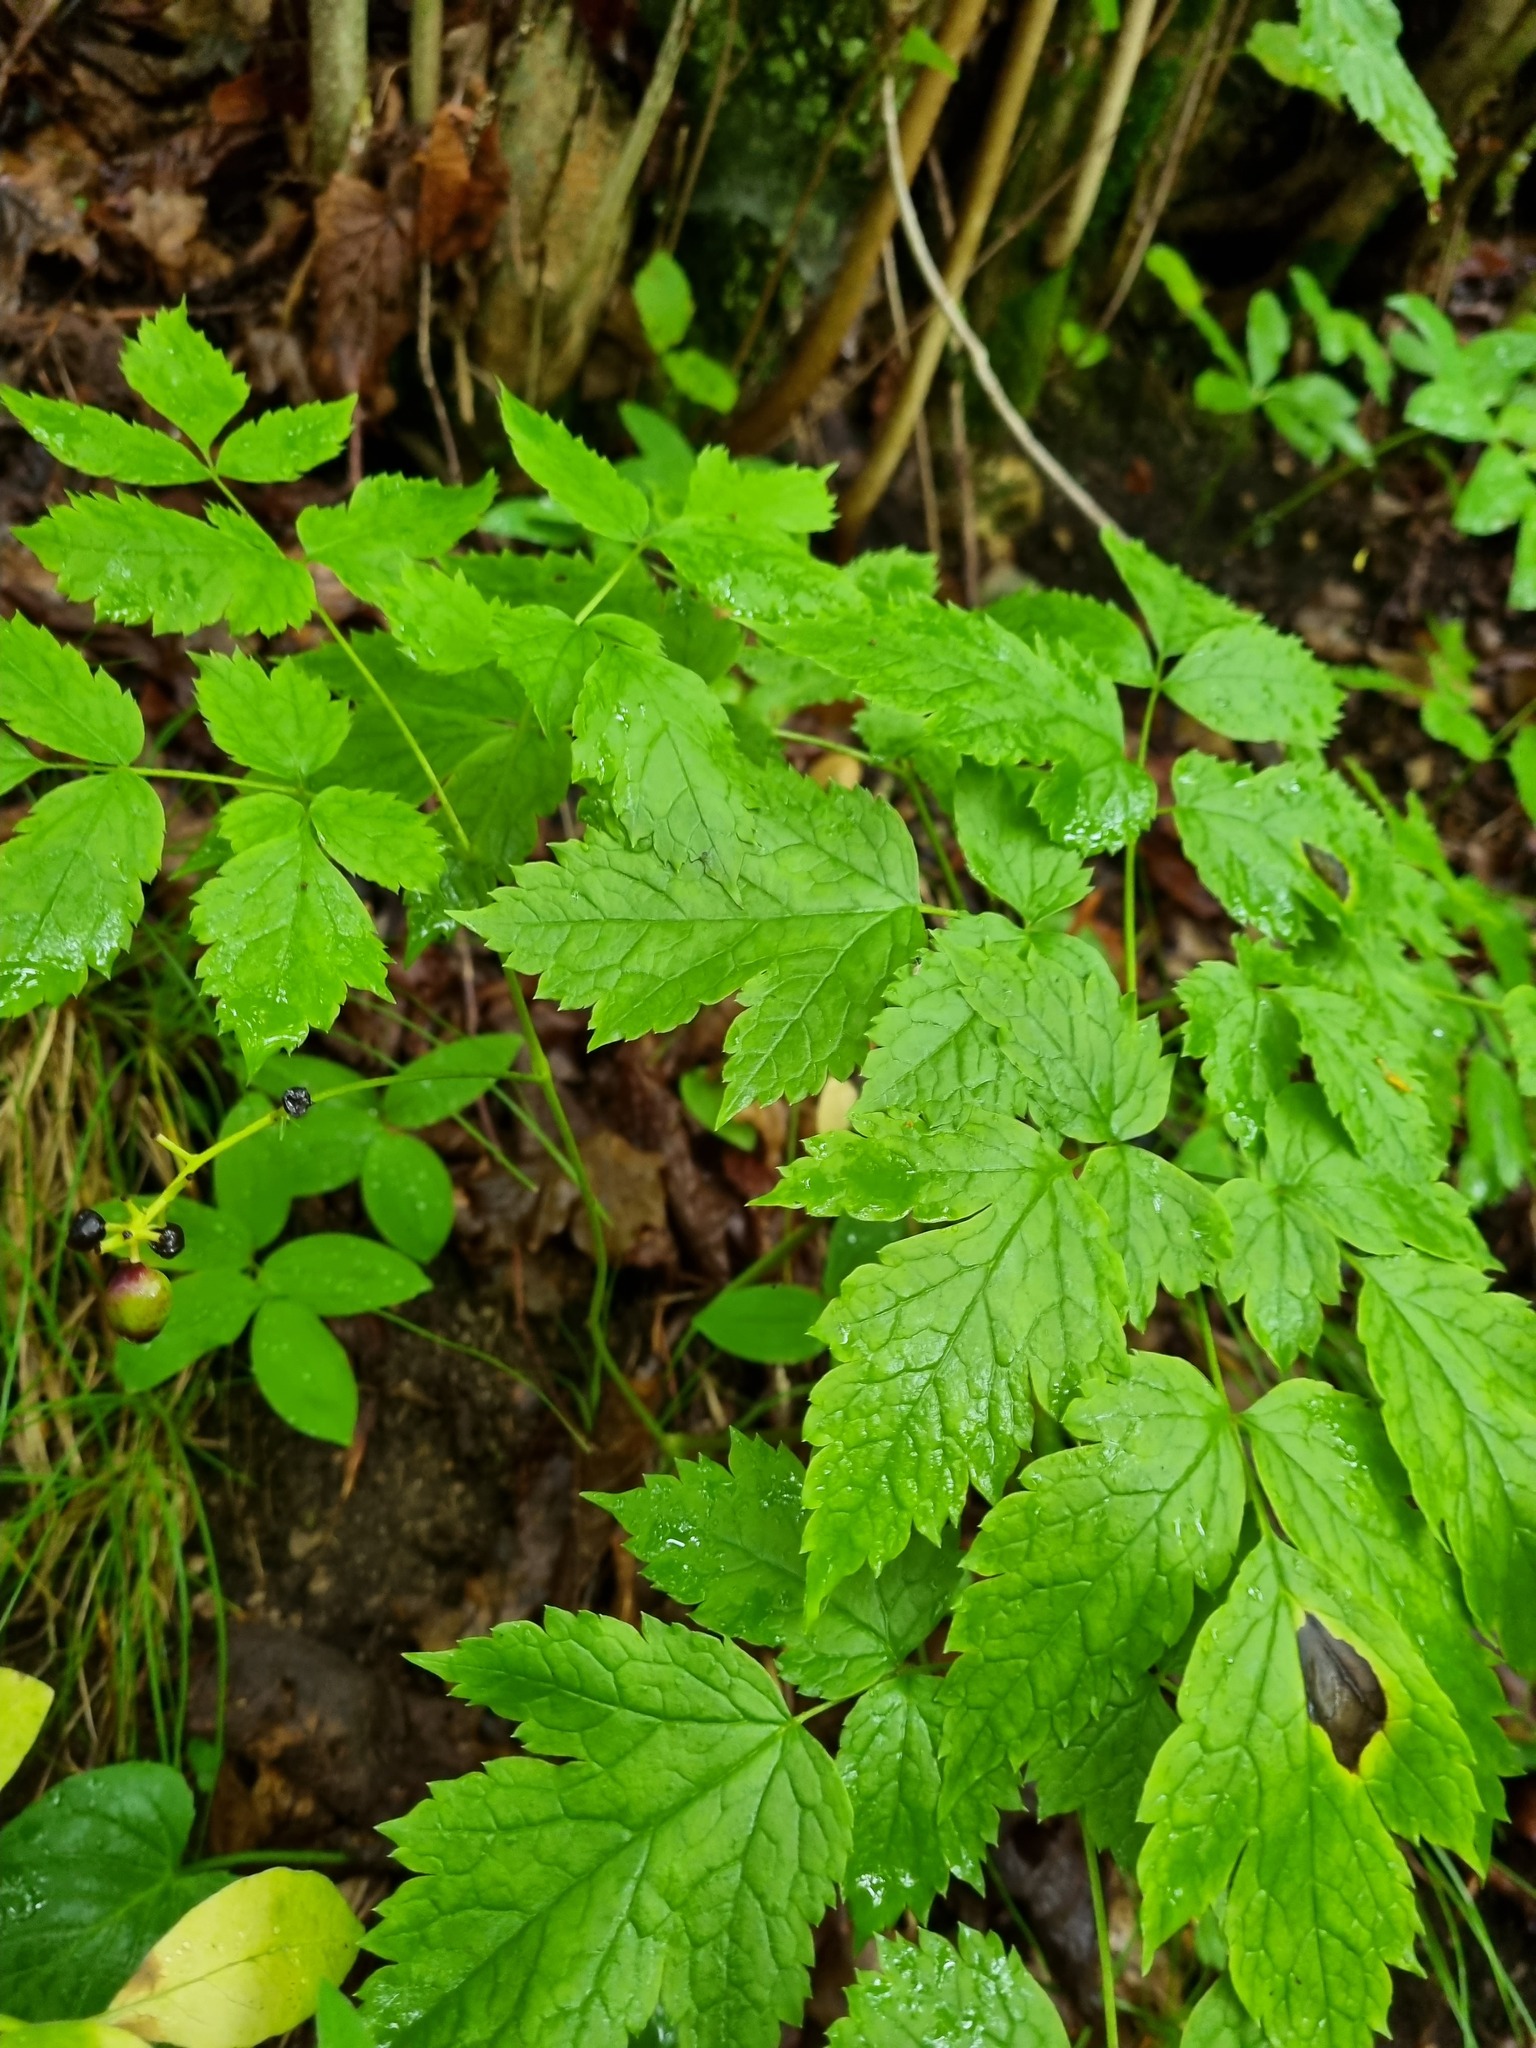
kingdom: Plantae
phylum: Tracheophyta
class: Magnoliopsida
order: Ranunculales
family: Ranunculaceae
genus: Actaea
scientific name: Actaea spicata
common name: Baneberry
